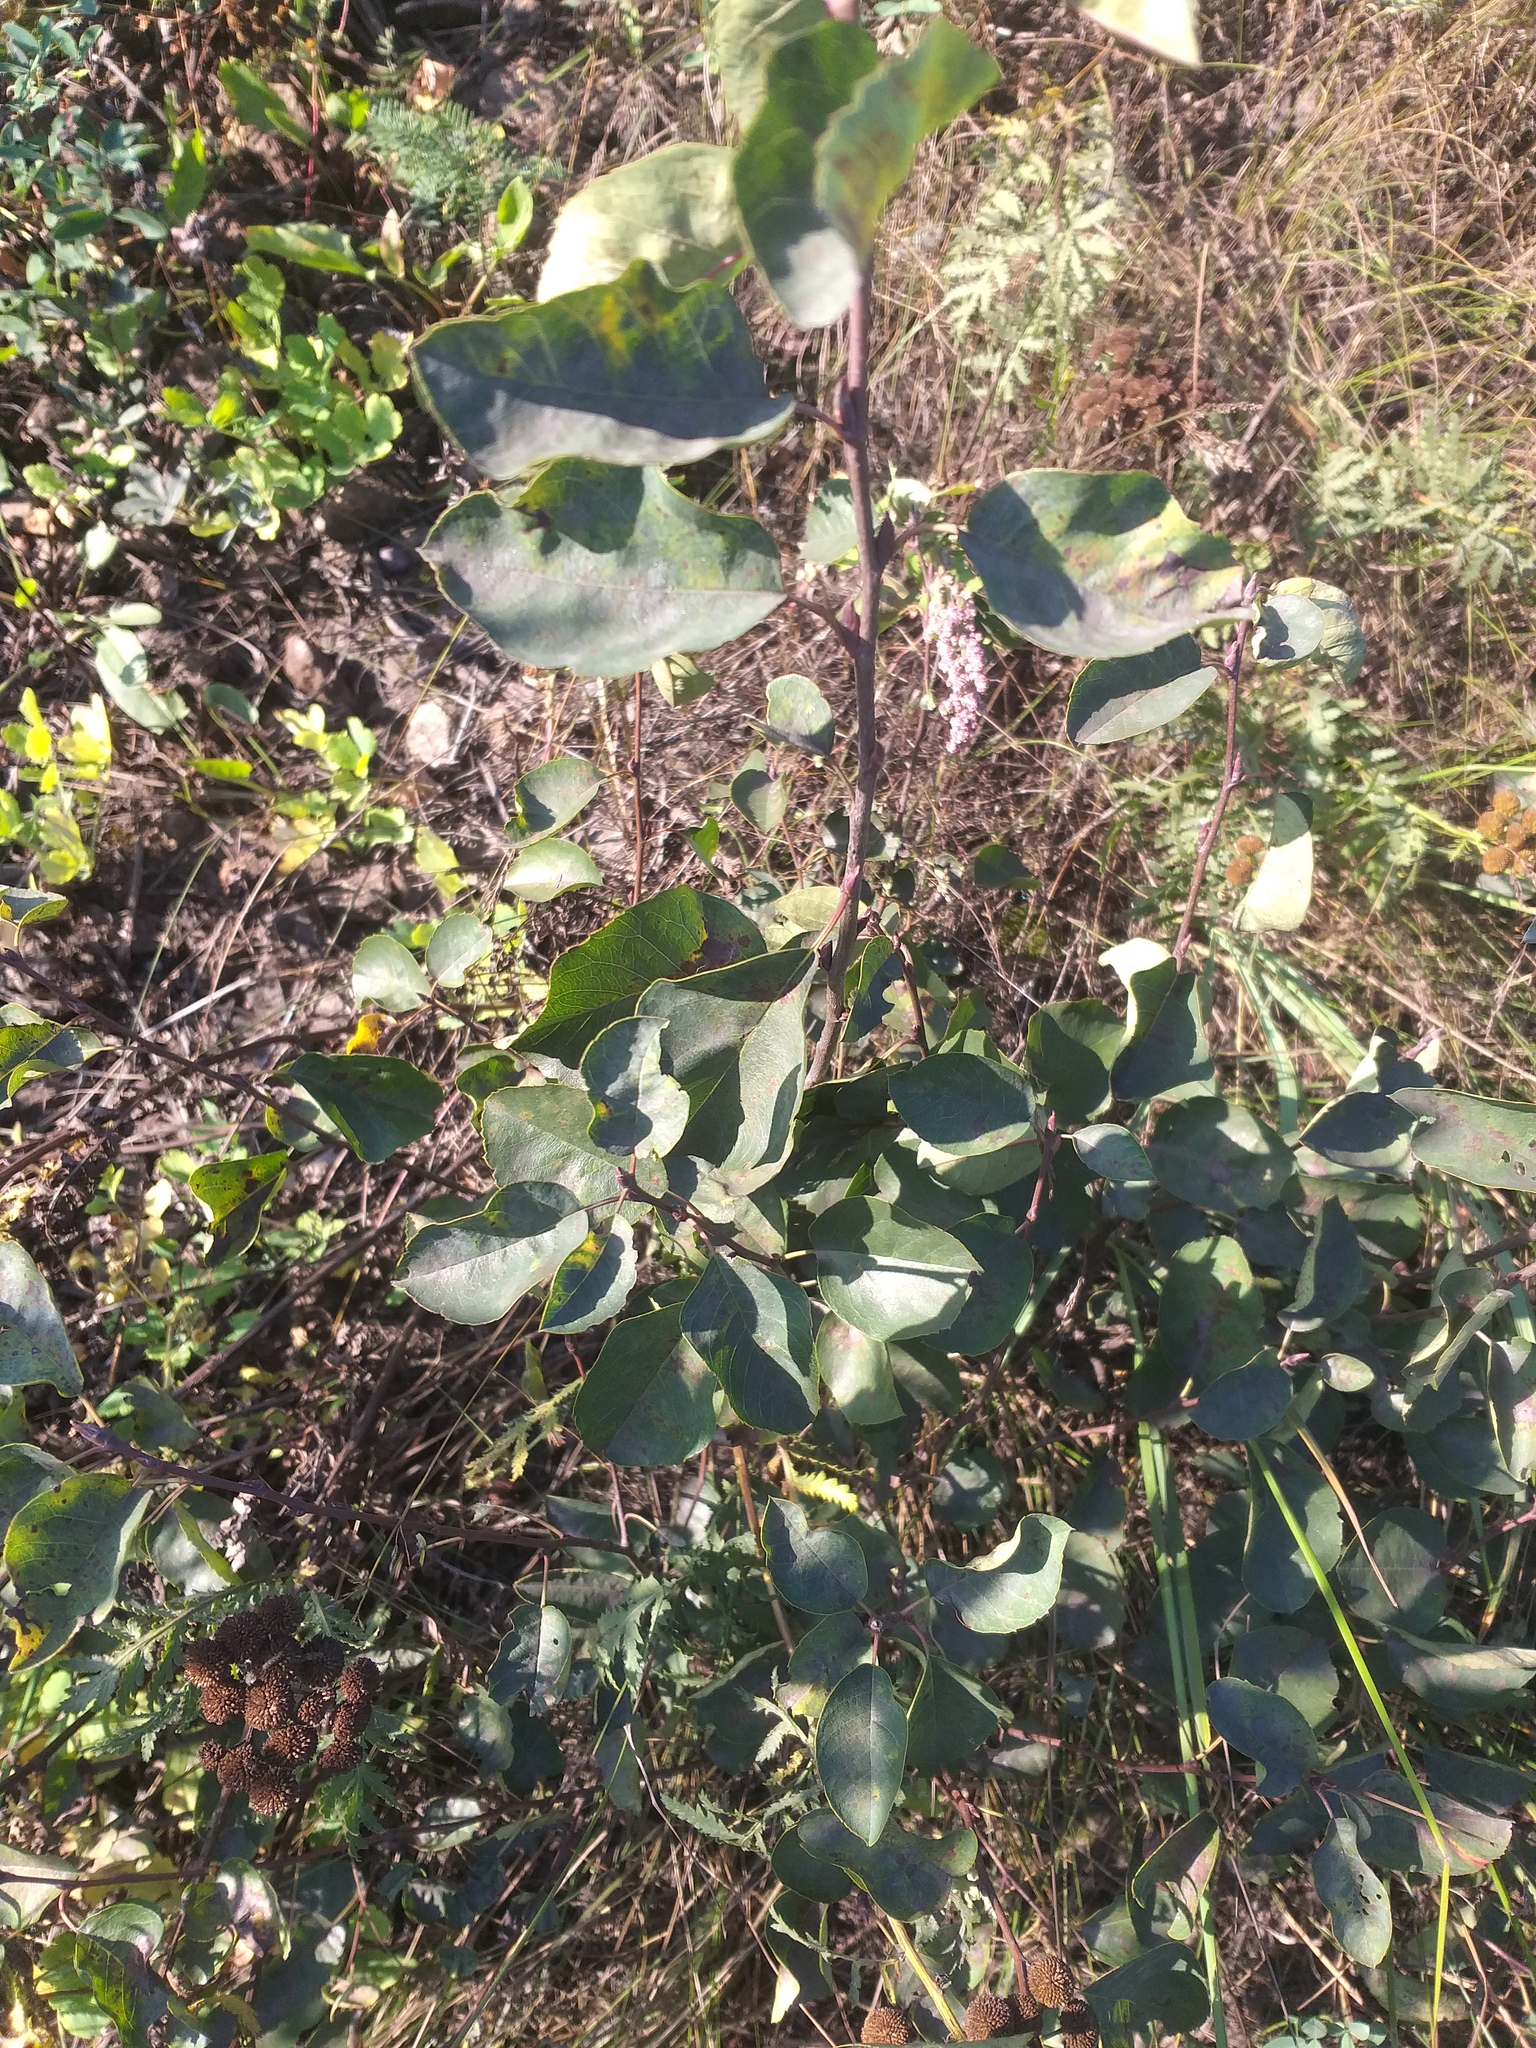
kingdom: Plantae
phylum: Tracheophyta
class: Magnoliopsida
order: Rosales
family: Rosaceae
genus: Amelanchier
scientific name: Amelanchier
